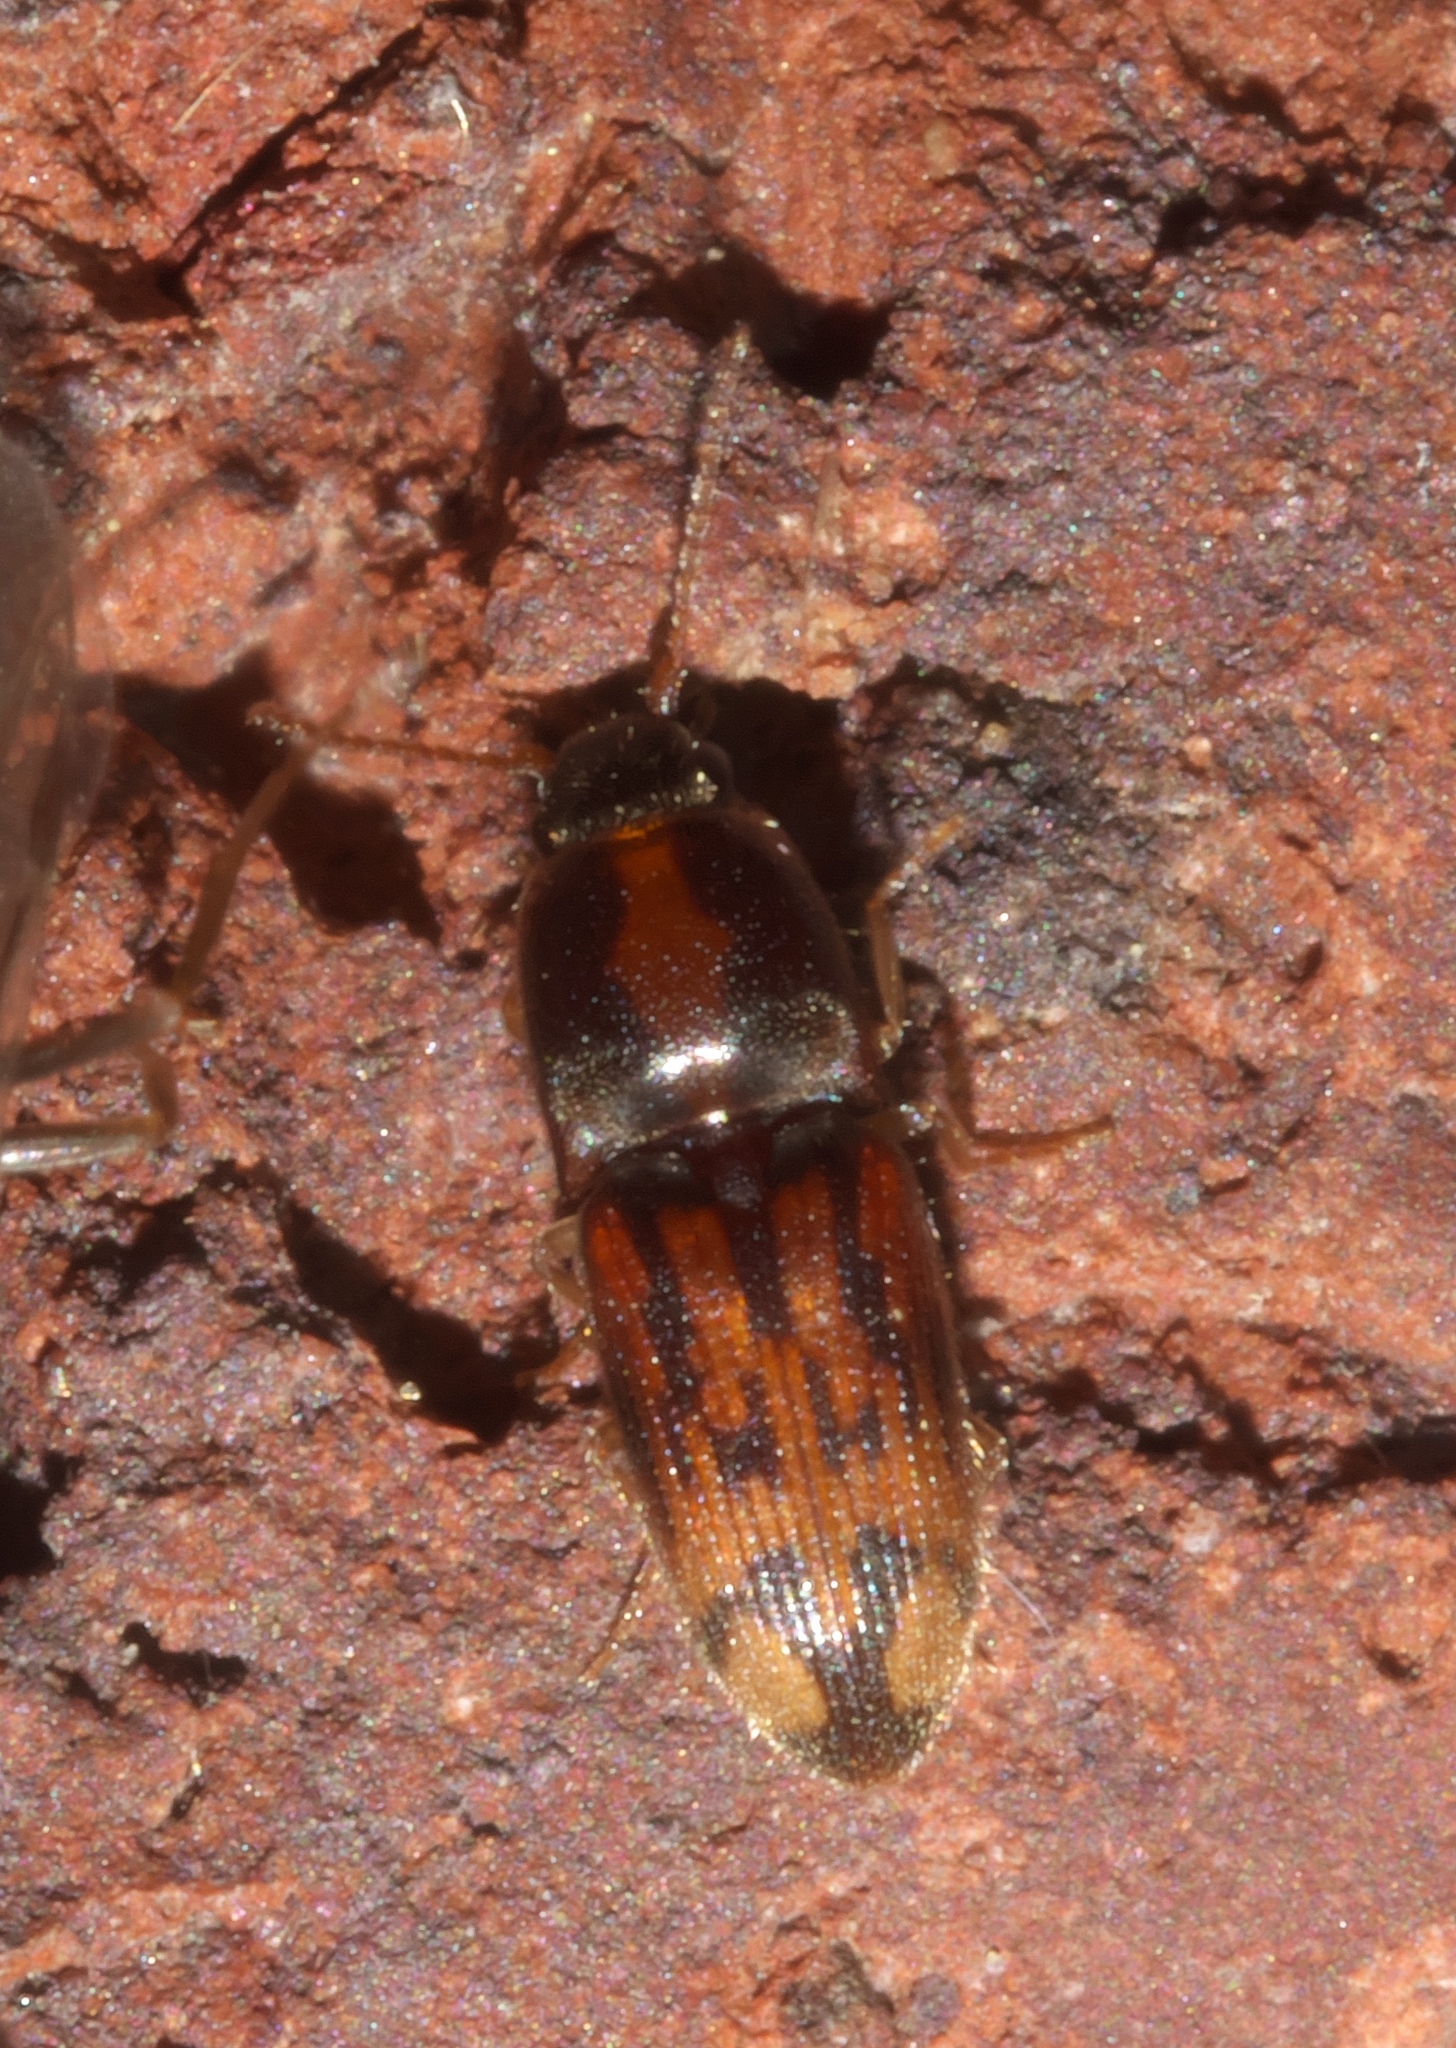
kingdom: Animalia
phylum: Arthropoda
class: Insecta
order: Coleoptera
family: Elateridae
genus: Monocrepidius
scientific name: Monocrepidius bellus
